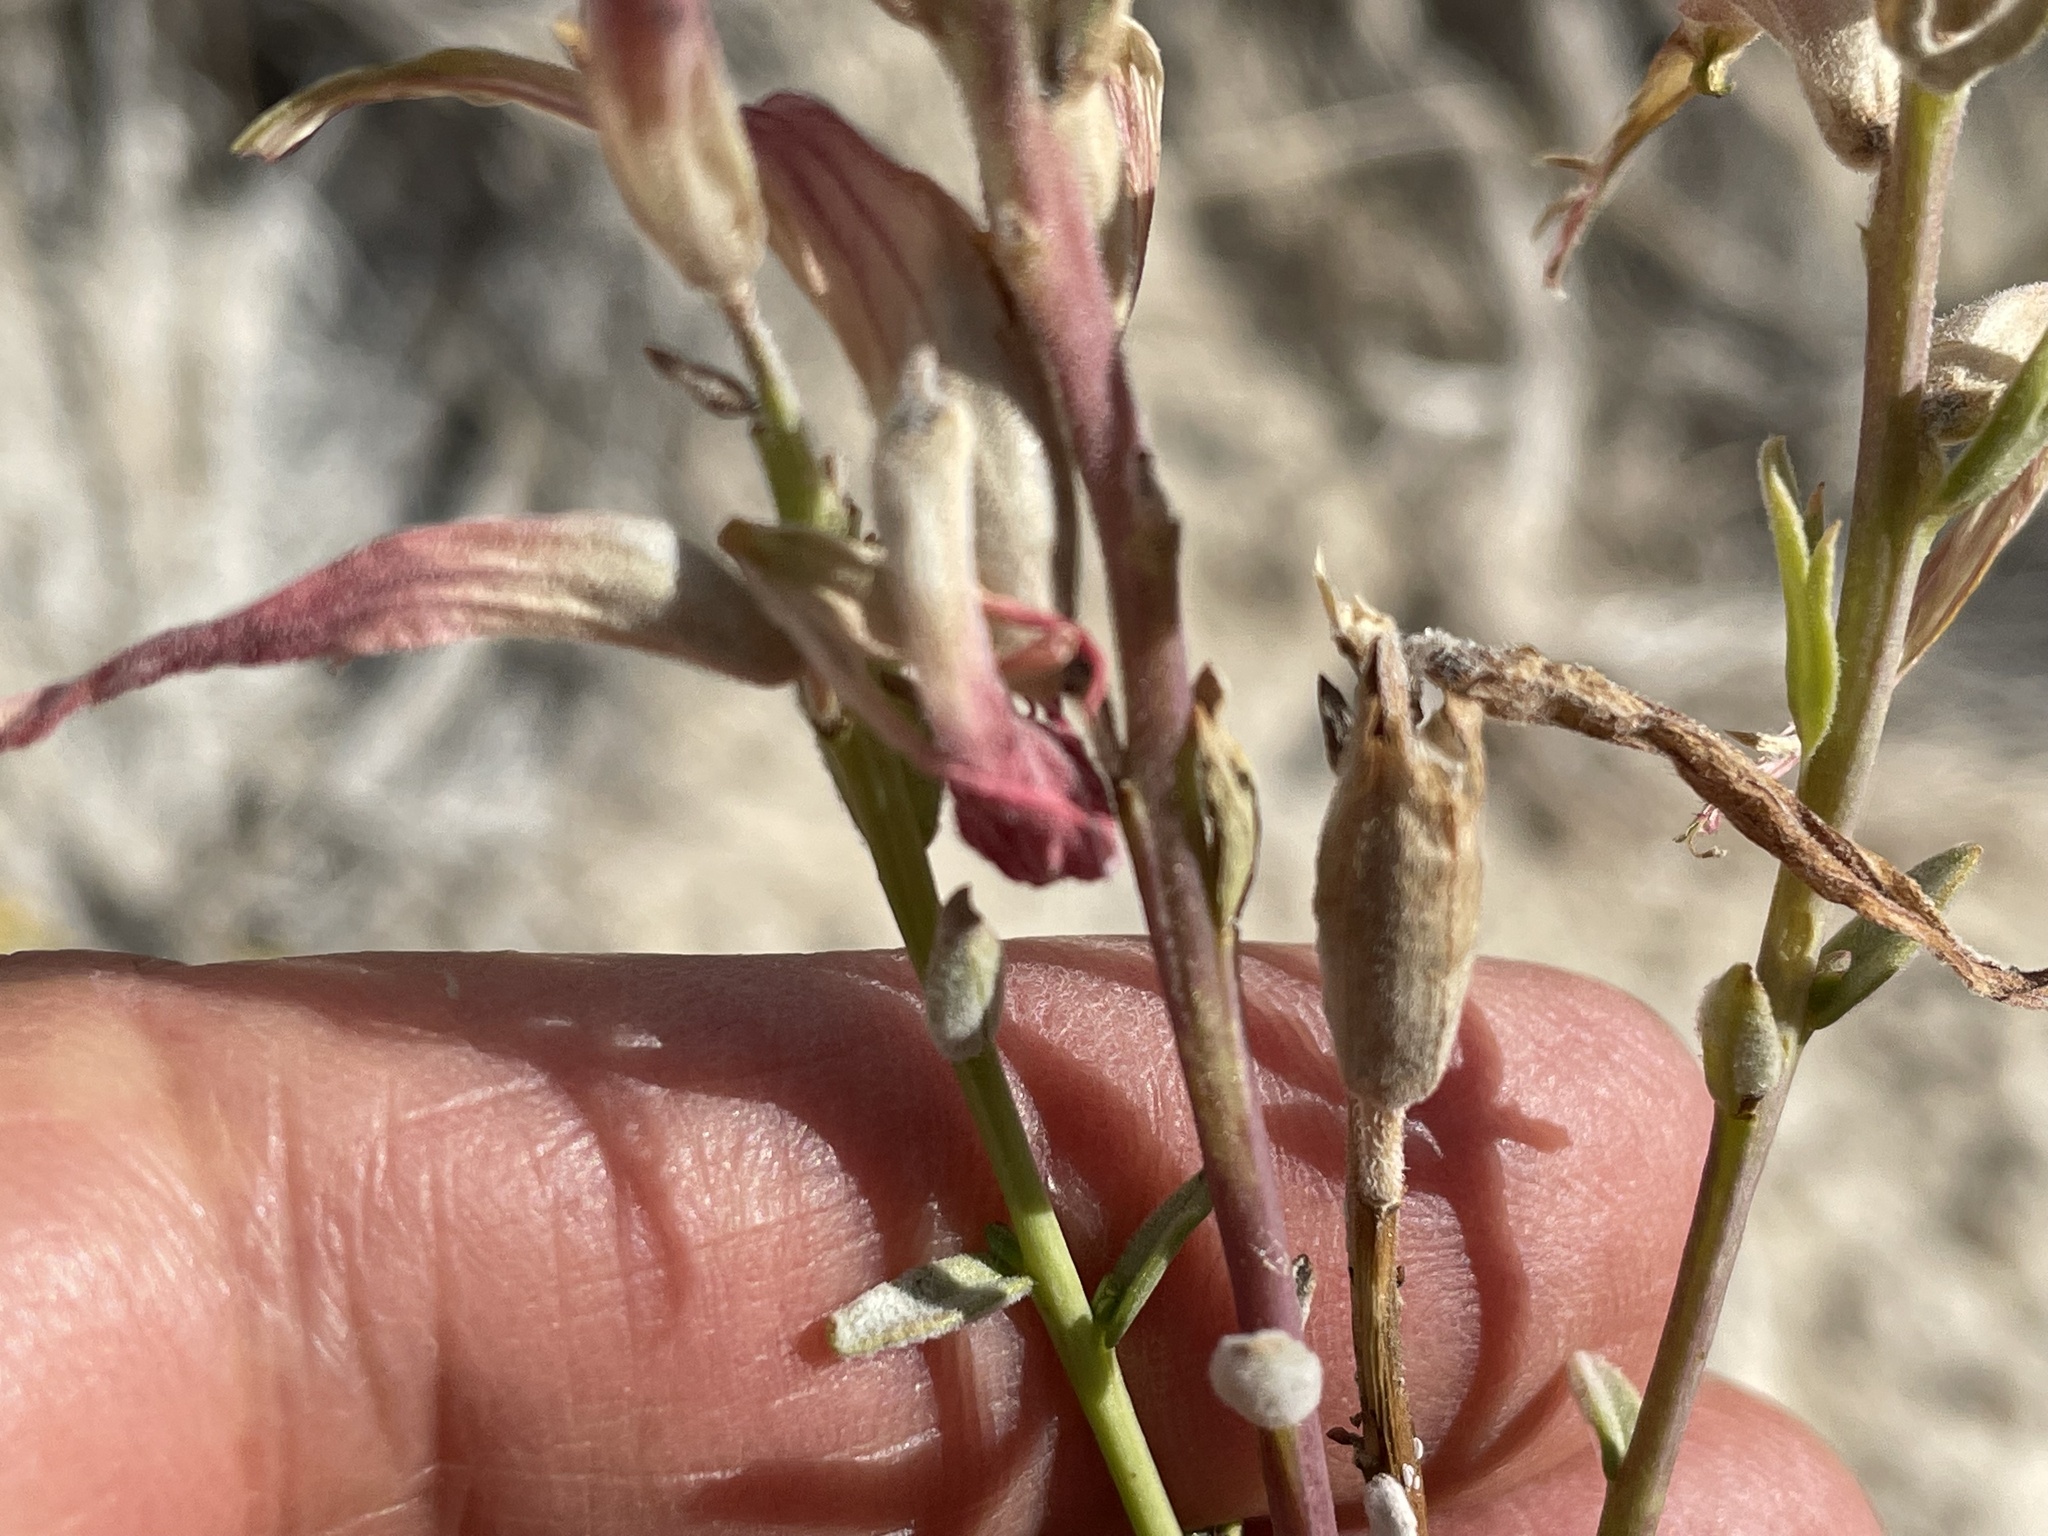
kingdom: Plantae
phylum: Tracheophyta
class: Magnoliopsida
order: Lamiales
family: Orobanchaceae
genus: Castilleja
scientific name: Castilleja linariifolia
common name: Wyoming paintbrush
